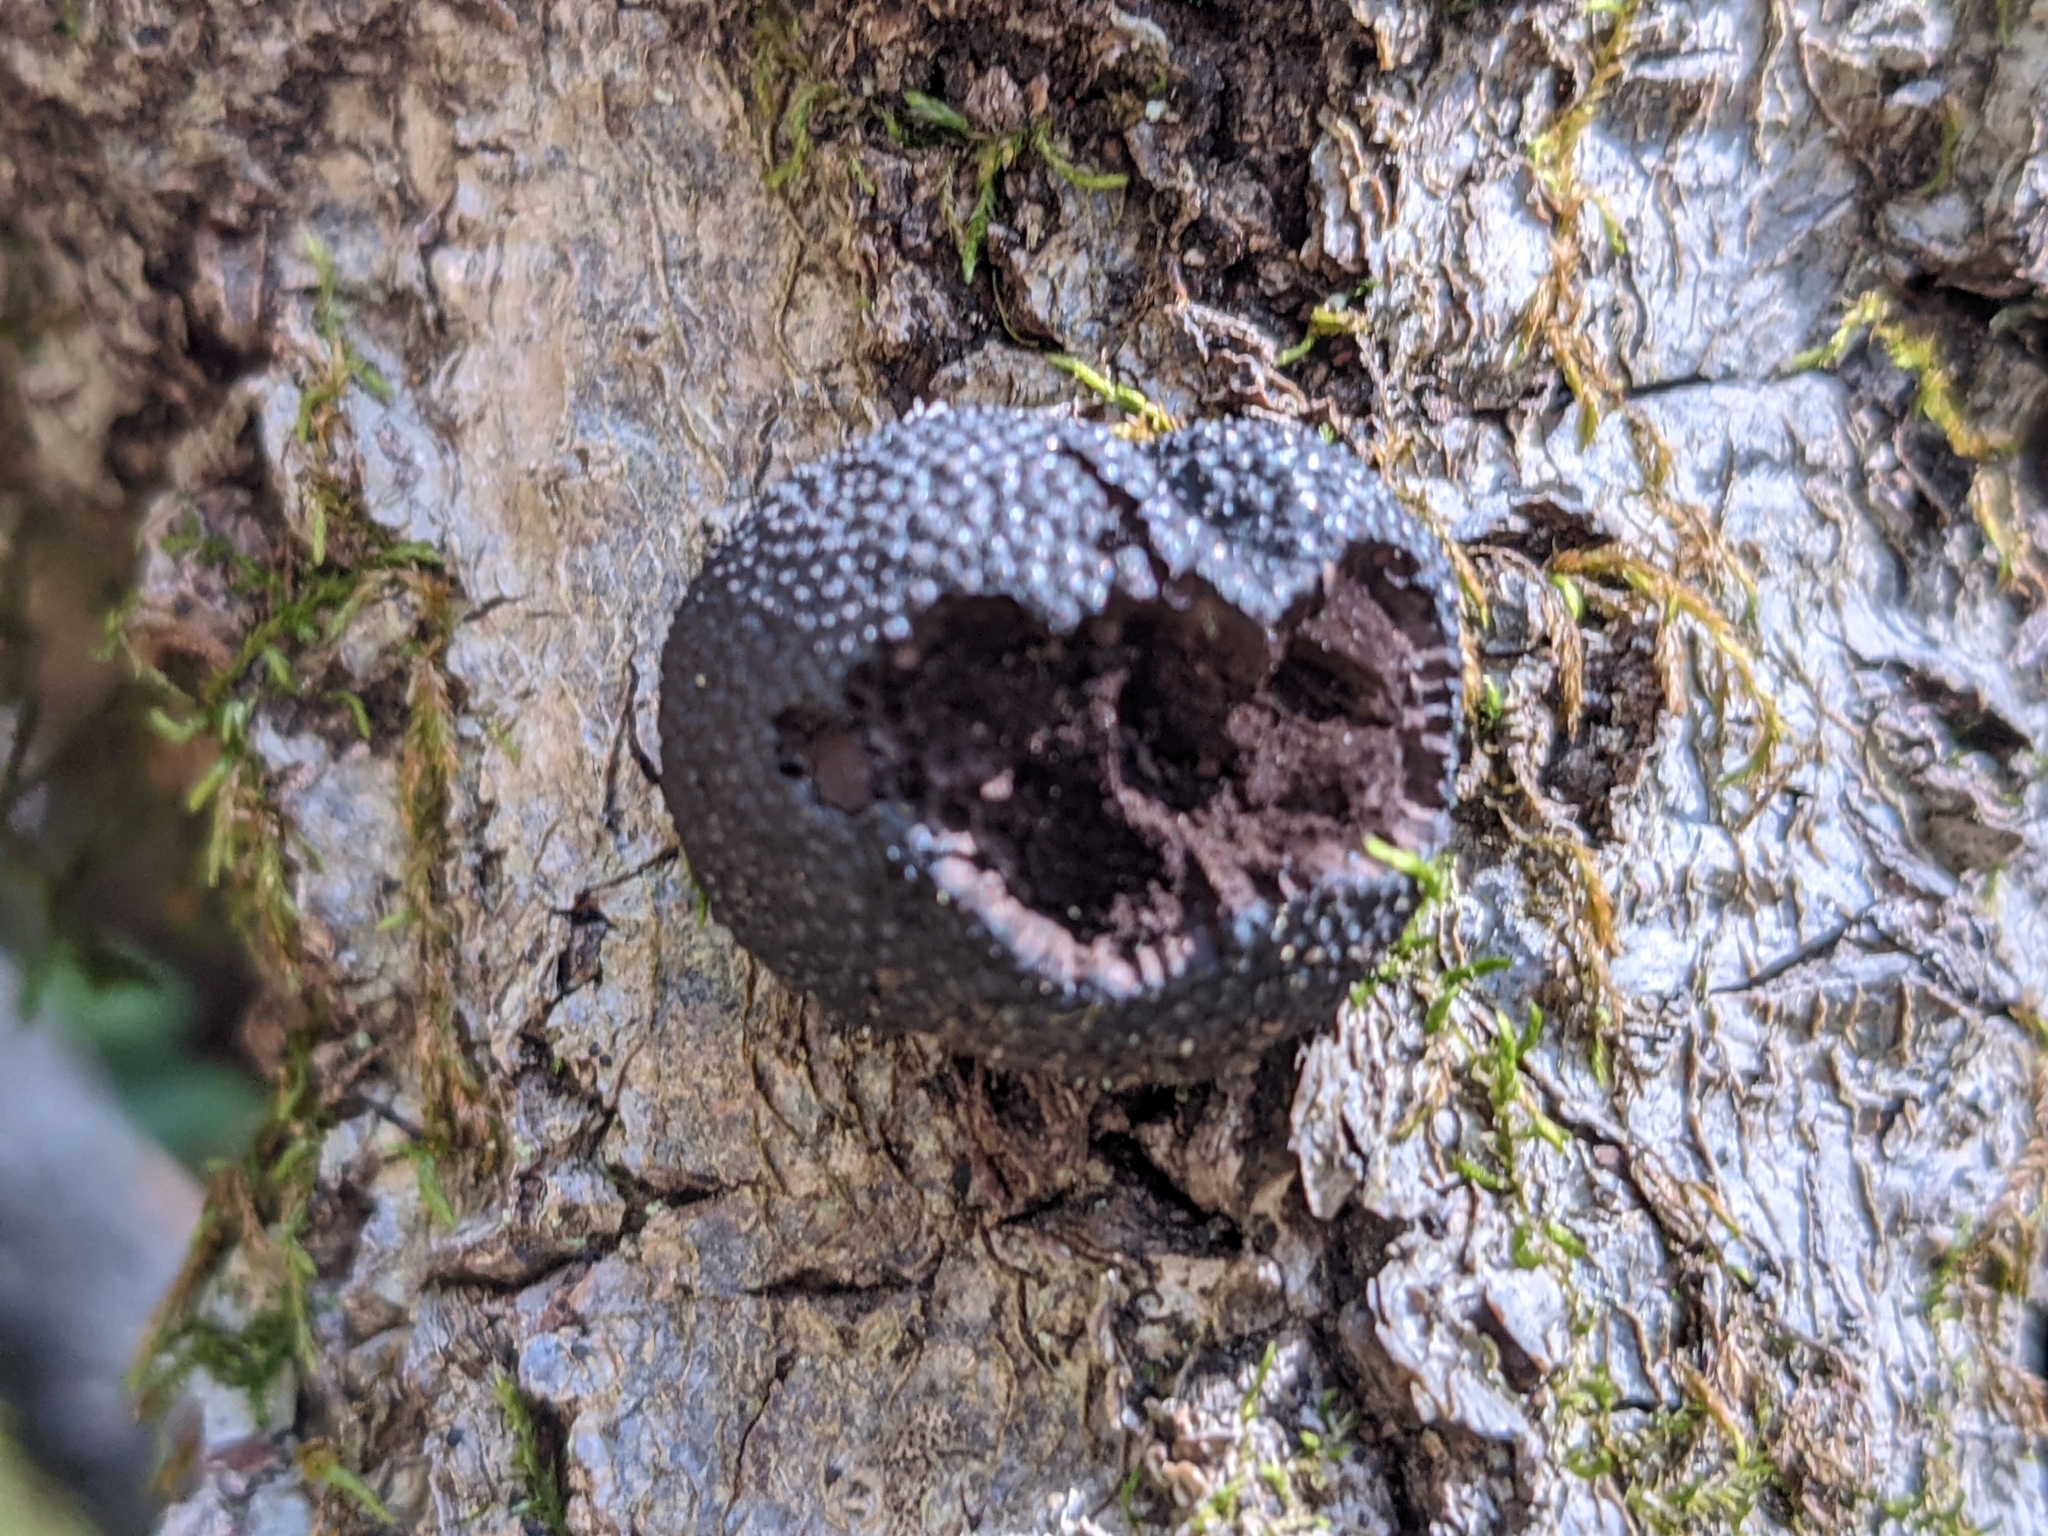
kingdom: Fungi
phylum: Ascomycota
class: Sordariomycetes
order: Xylariales
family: Hypoxylaceae
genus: Annulohypoxylon
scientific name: Annulohypoxylon thouarsianum
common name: Cramp balls
